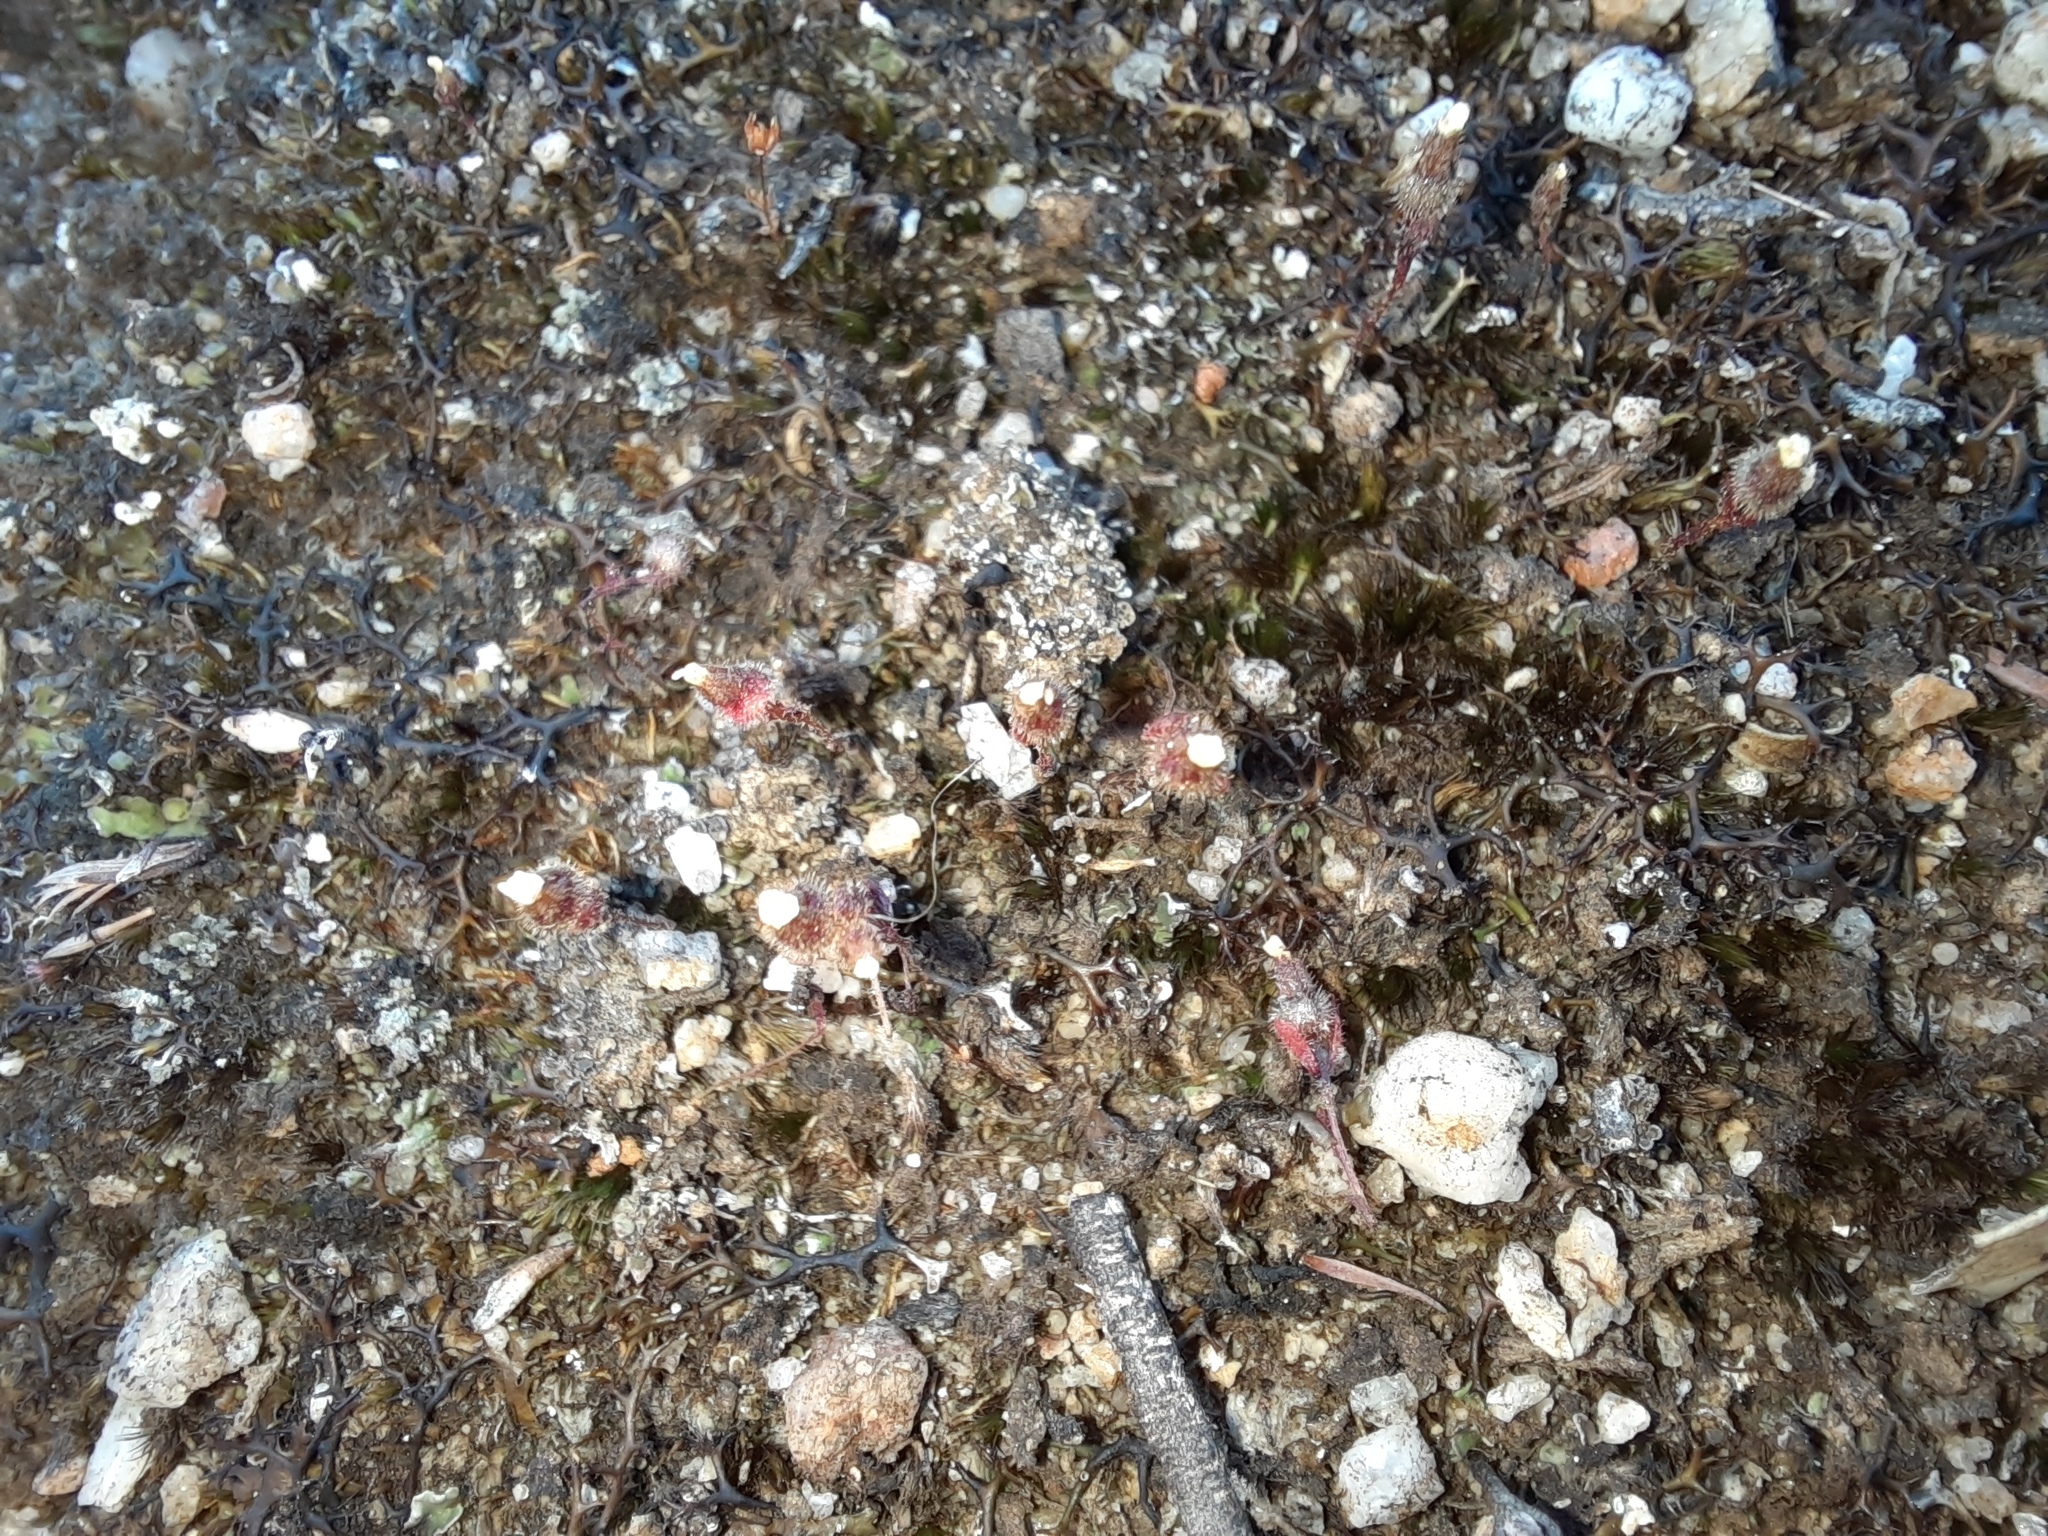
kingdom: Plantae
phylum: Tracheophyta
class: Magnoliopsida
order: Asterales
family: Stylidiaceae
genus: Levenhookia
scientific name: Levenhookia dubia
